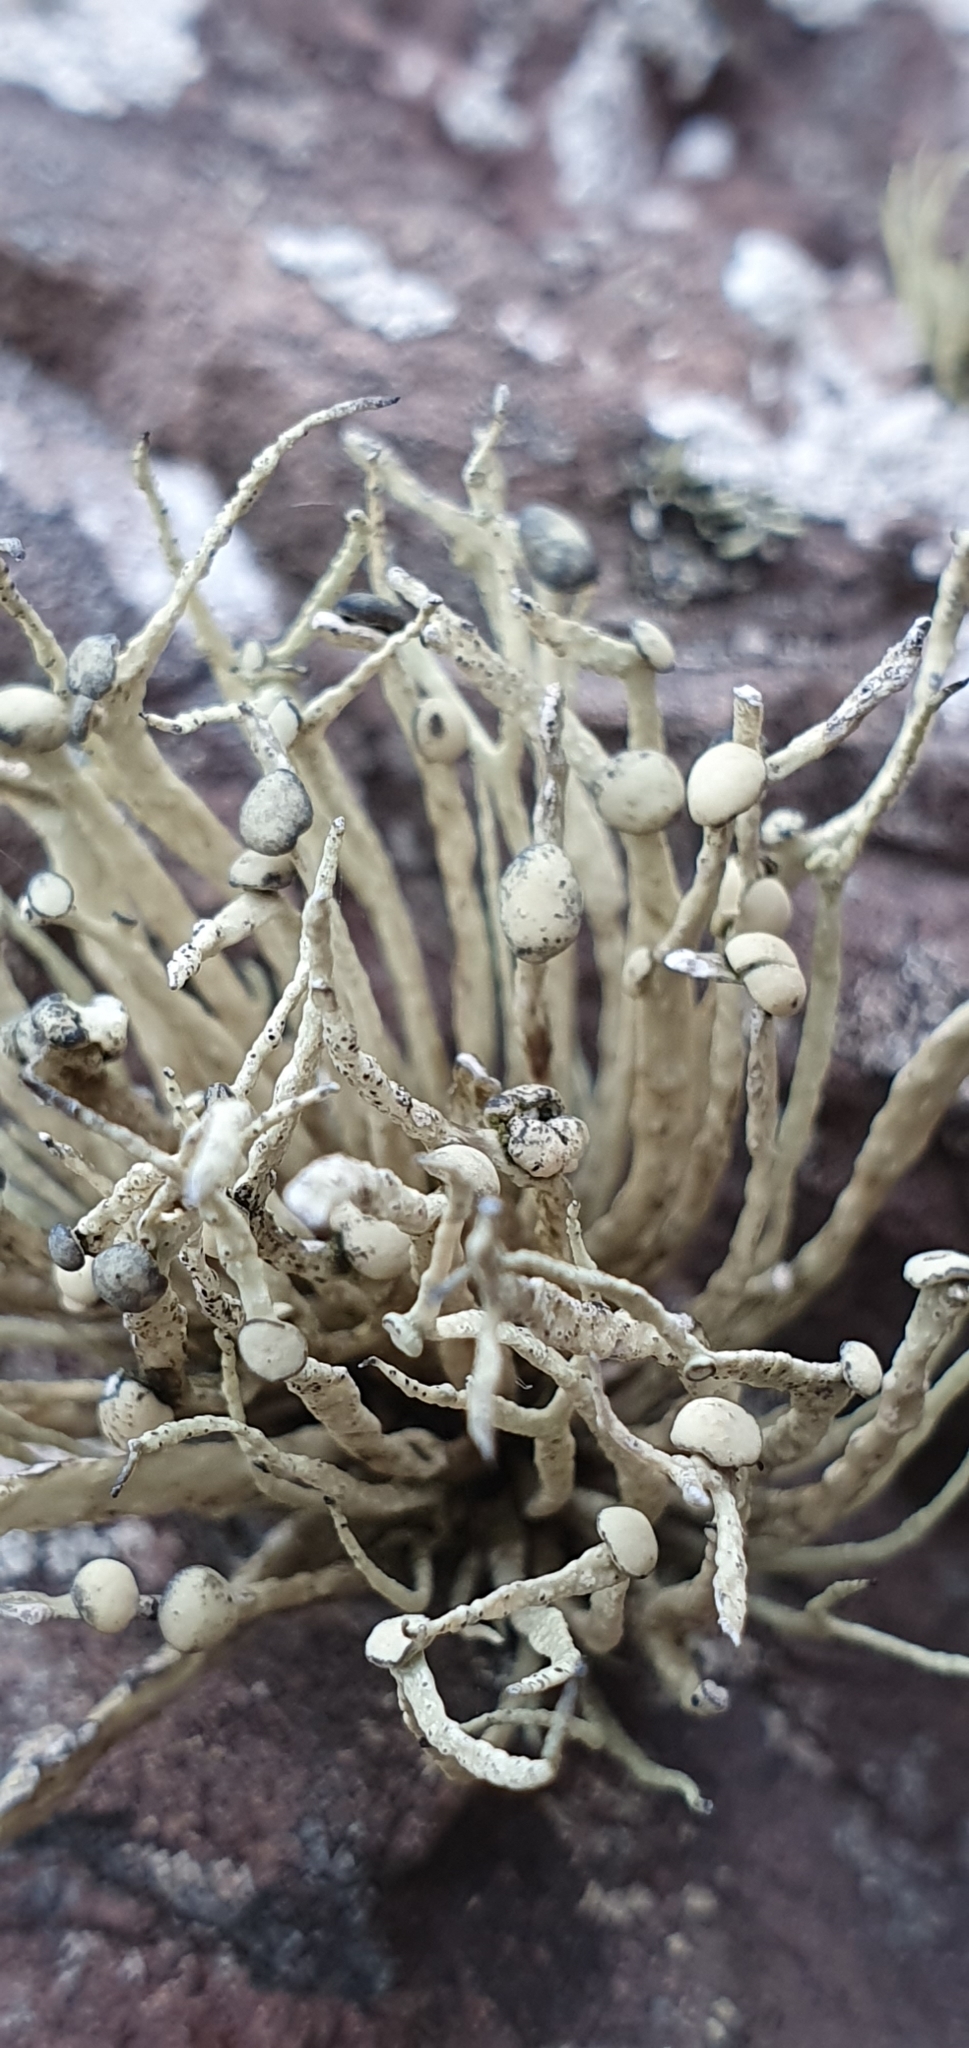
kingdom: Fungi
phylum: Ascomycota
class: Lecanoromycetes
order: Lecanorales
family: Ramalinaceae
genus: Ramalina
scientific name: Ramalina cuspidata
